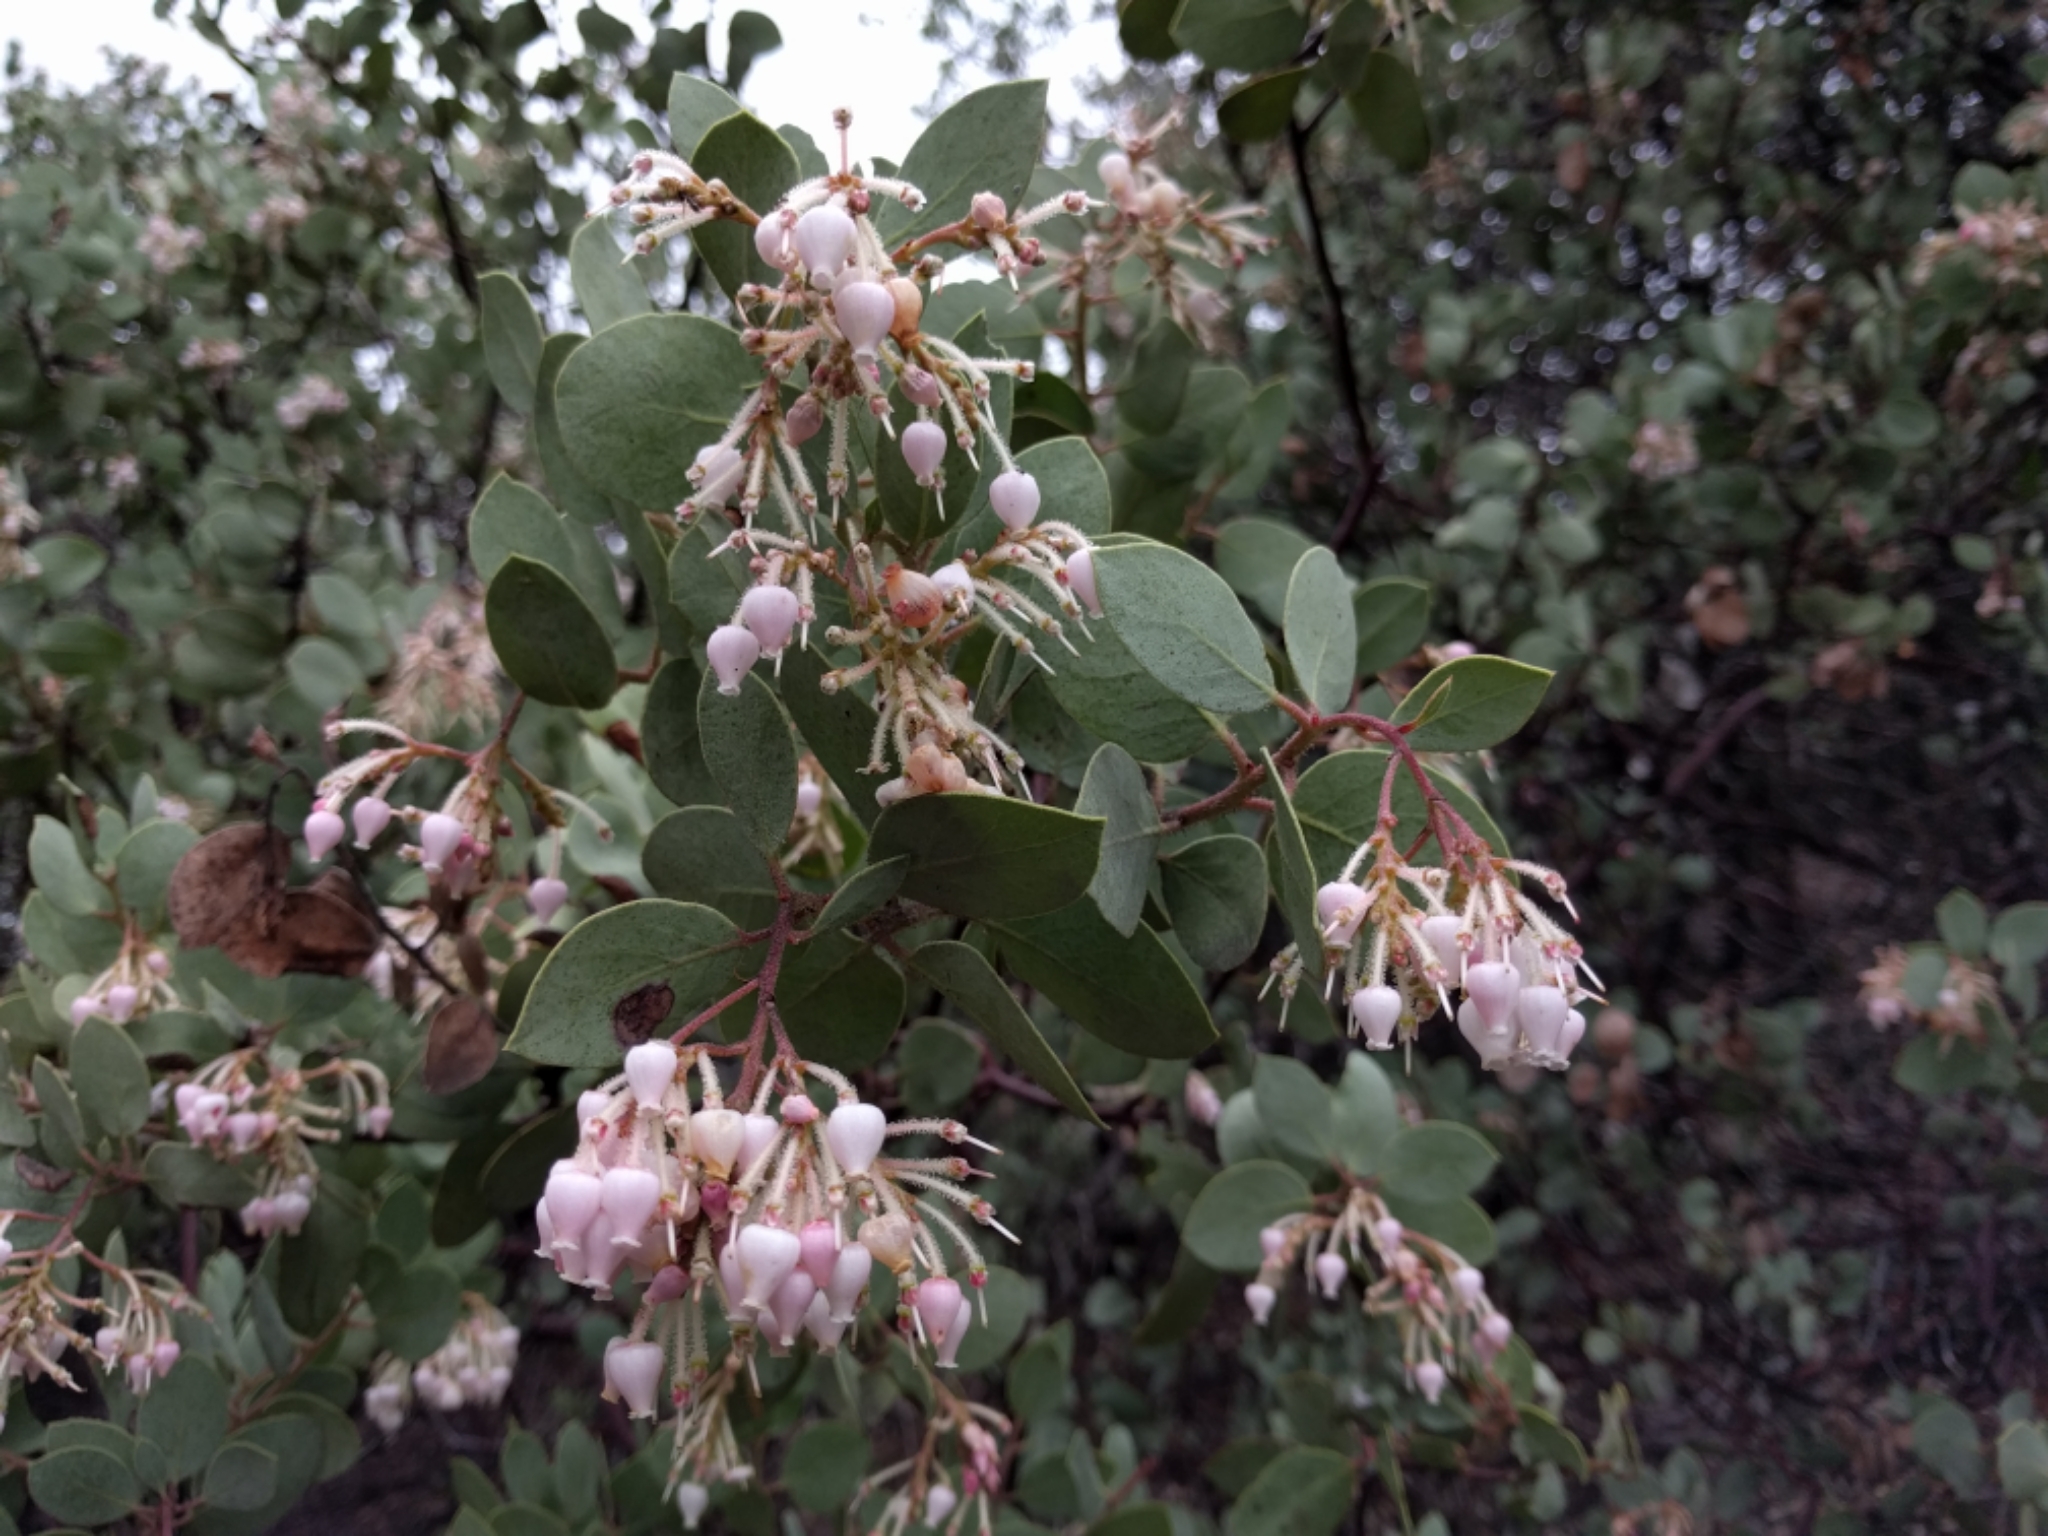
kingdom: Plantae
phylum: Tracheophyta
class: Magnoliopsida
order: Ericales
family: Ericaceae
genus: Arctostaphylos
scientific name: Arctostaphylos viscida
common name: White-leaf manzanita
